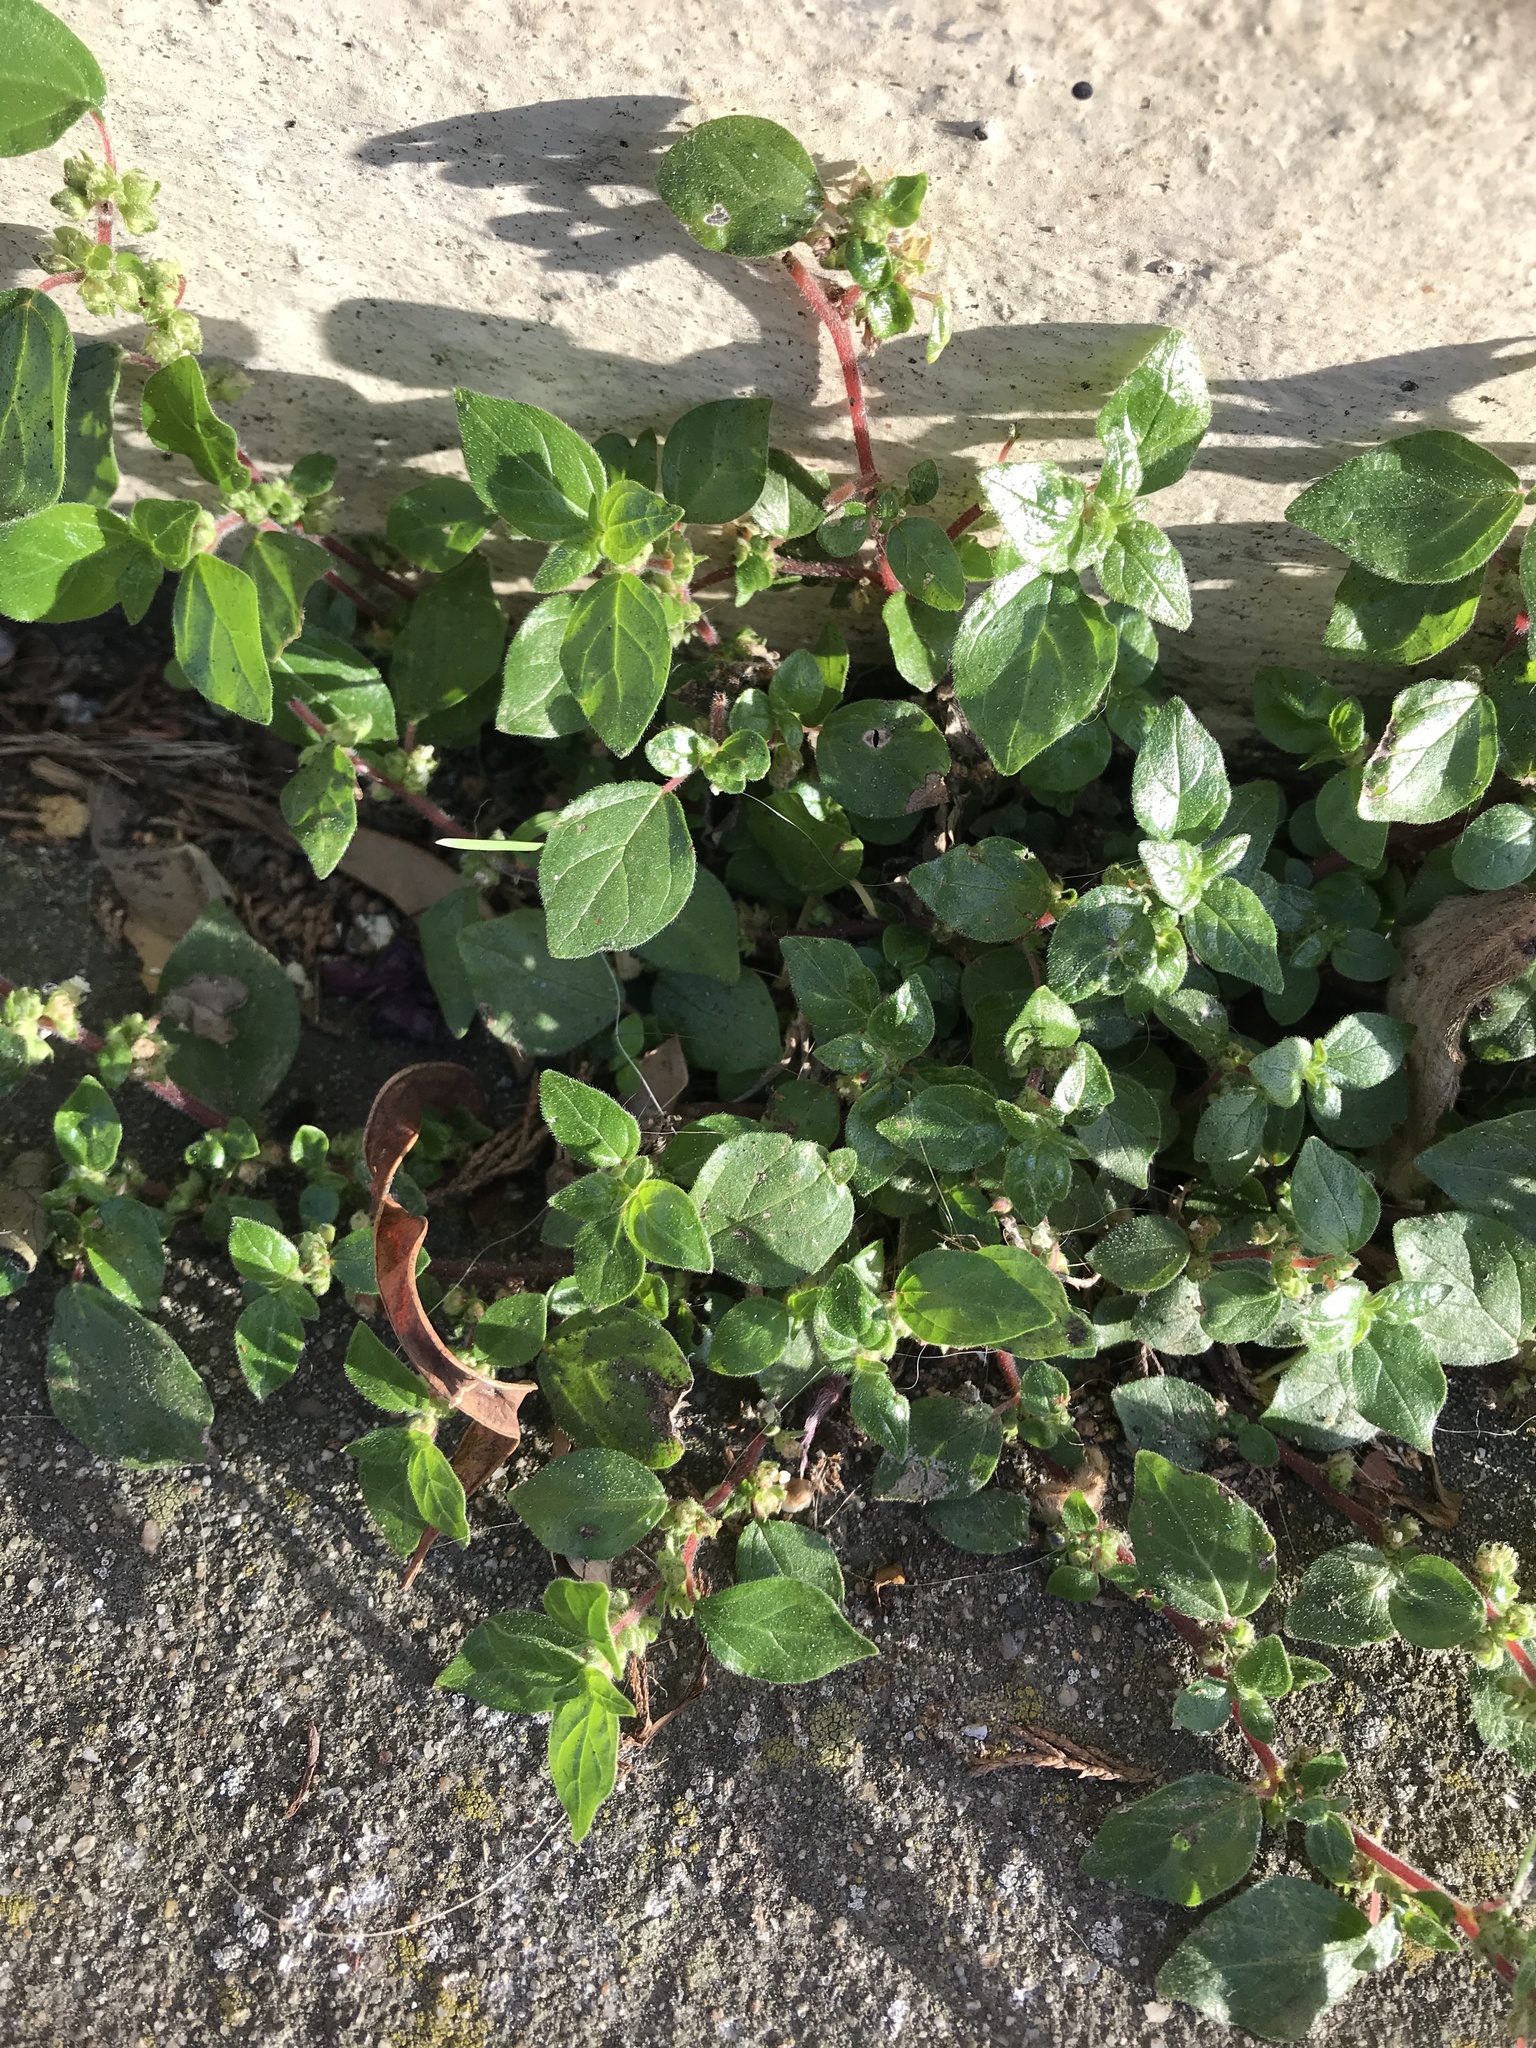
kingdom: Plantae
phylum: Tracheophyta
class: Magnoliopsida
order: Rosales
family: Urticaceae
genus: Parietaria
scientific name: Parietaria judaica
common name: Pellitory-of-the-wall
